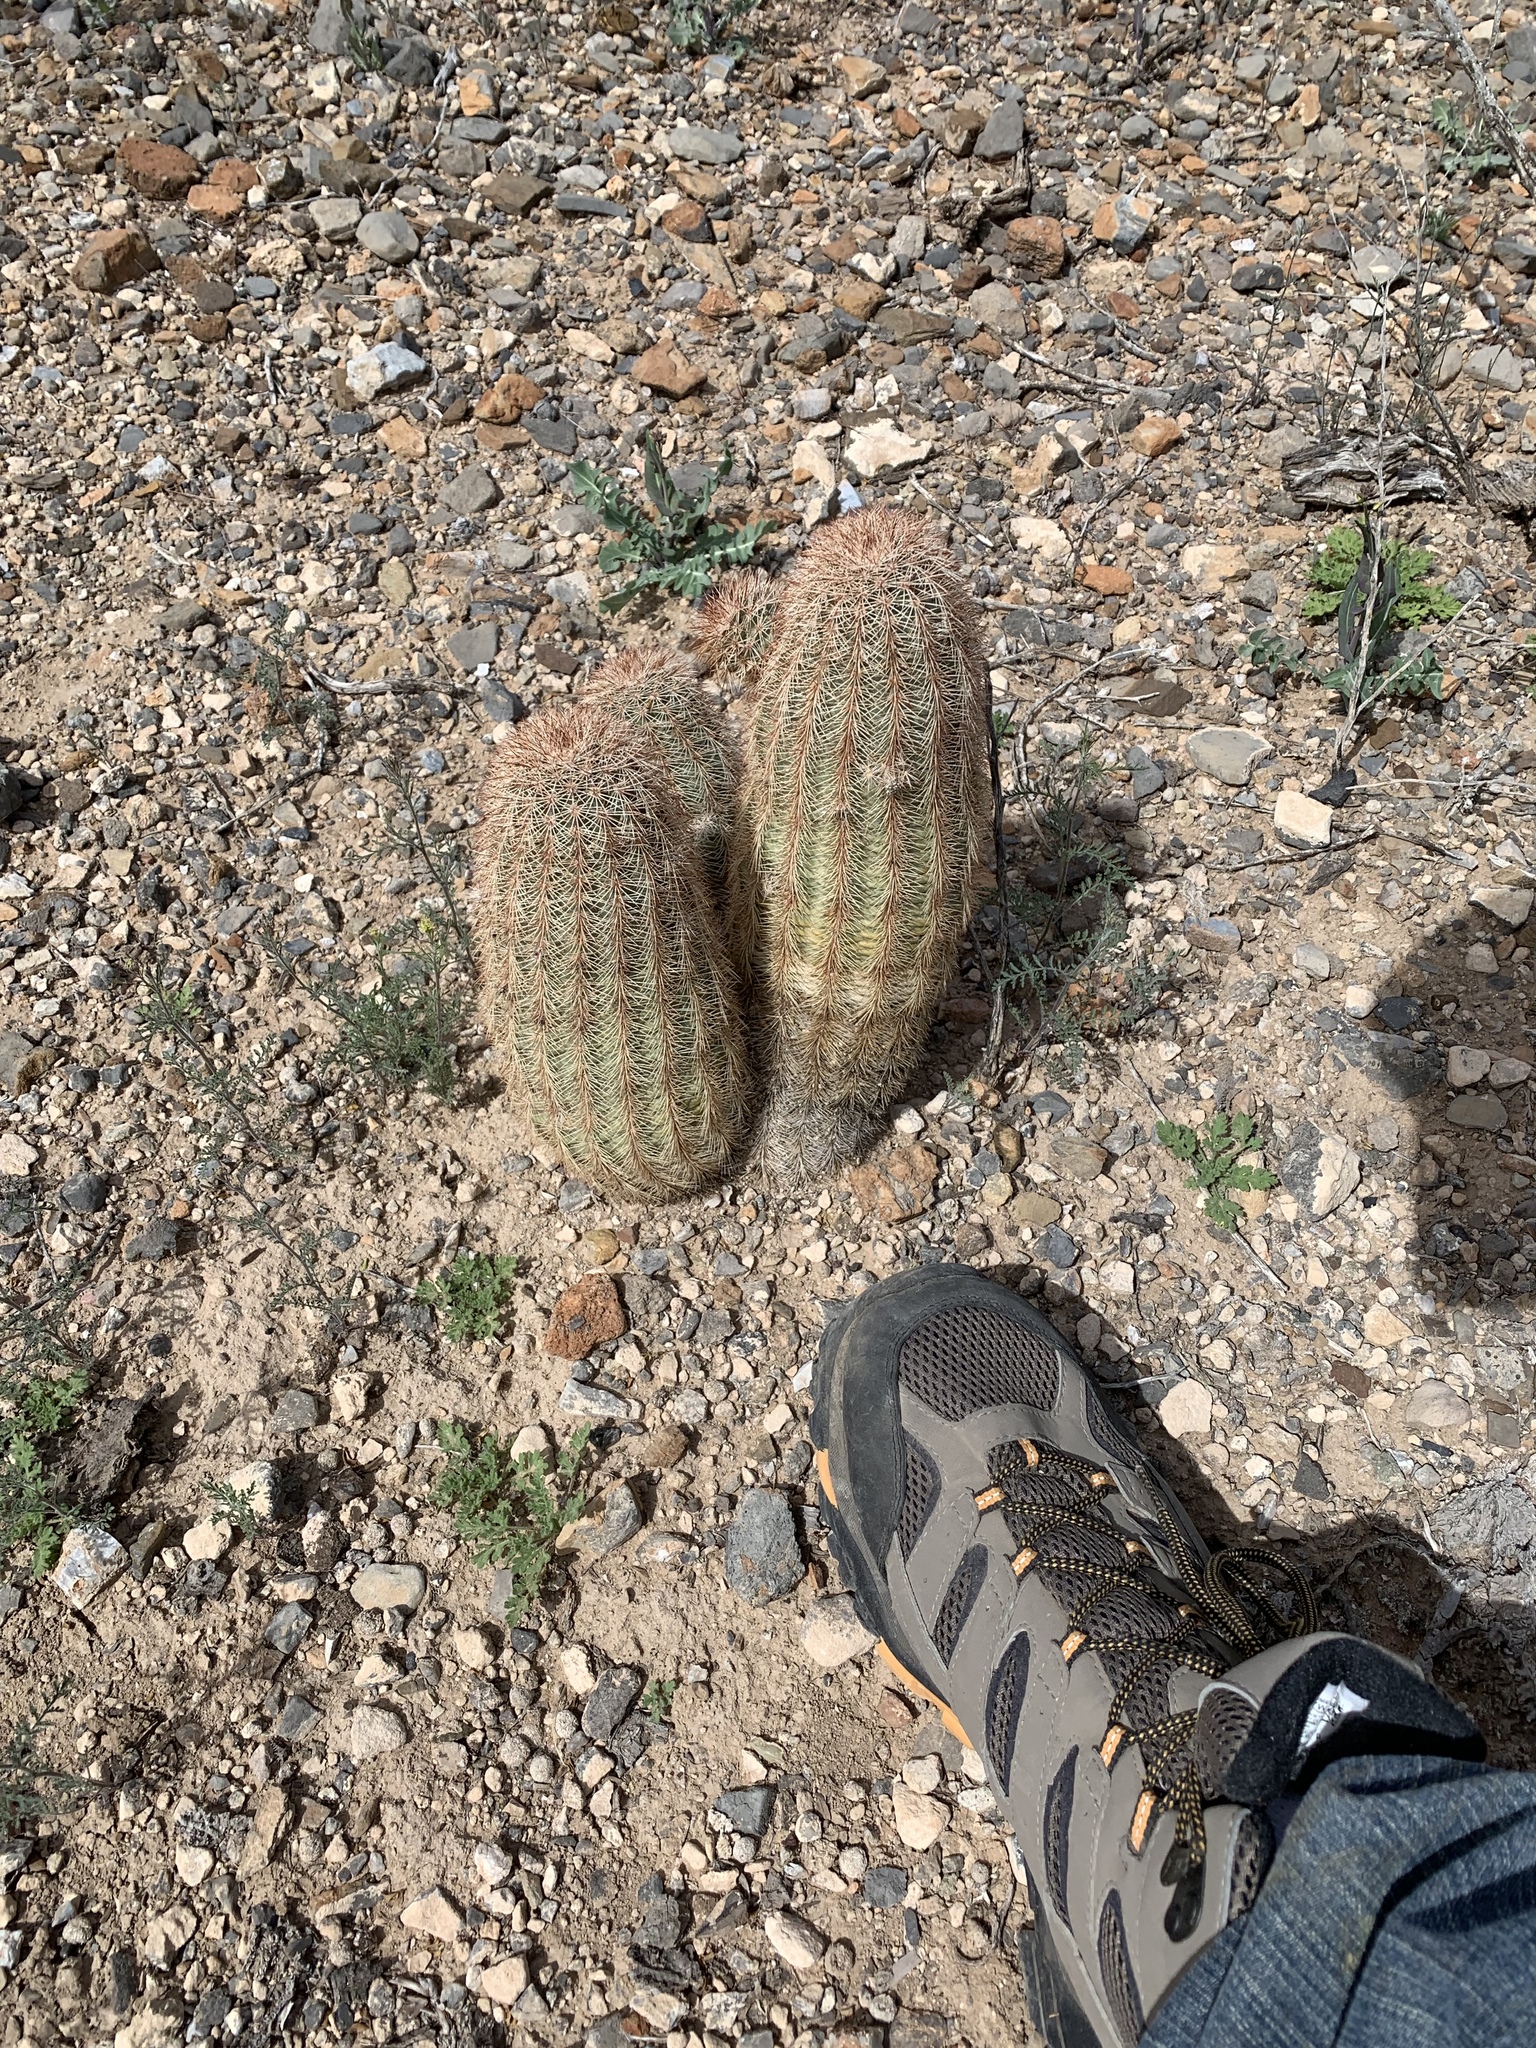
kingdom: Plantae
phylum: Tracheophyta
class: Magnoliopsida
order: Caryophyllales
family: Cactaceae
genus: Echinocereus
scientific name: Echinocereus dasyacanthus
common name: Spiny hedgehog cactus
